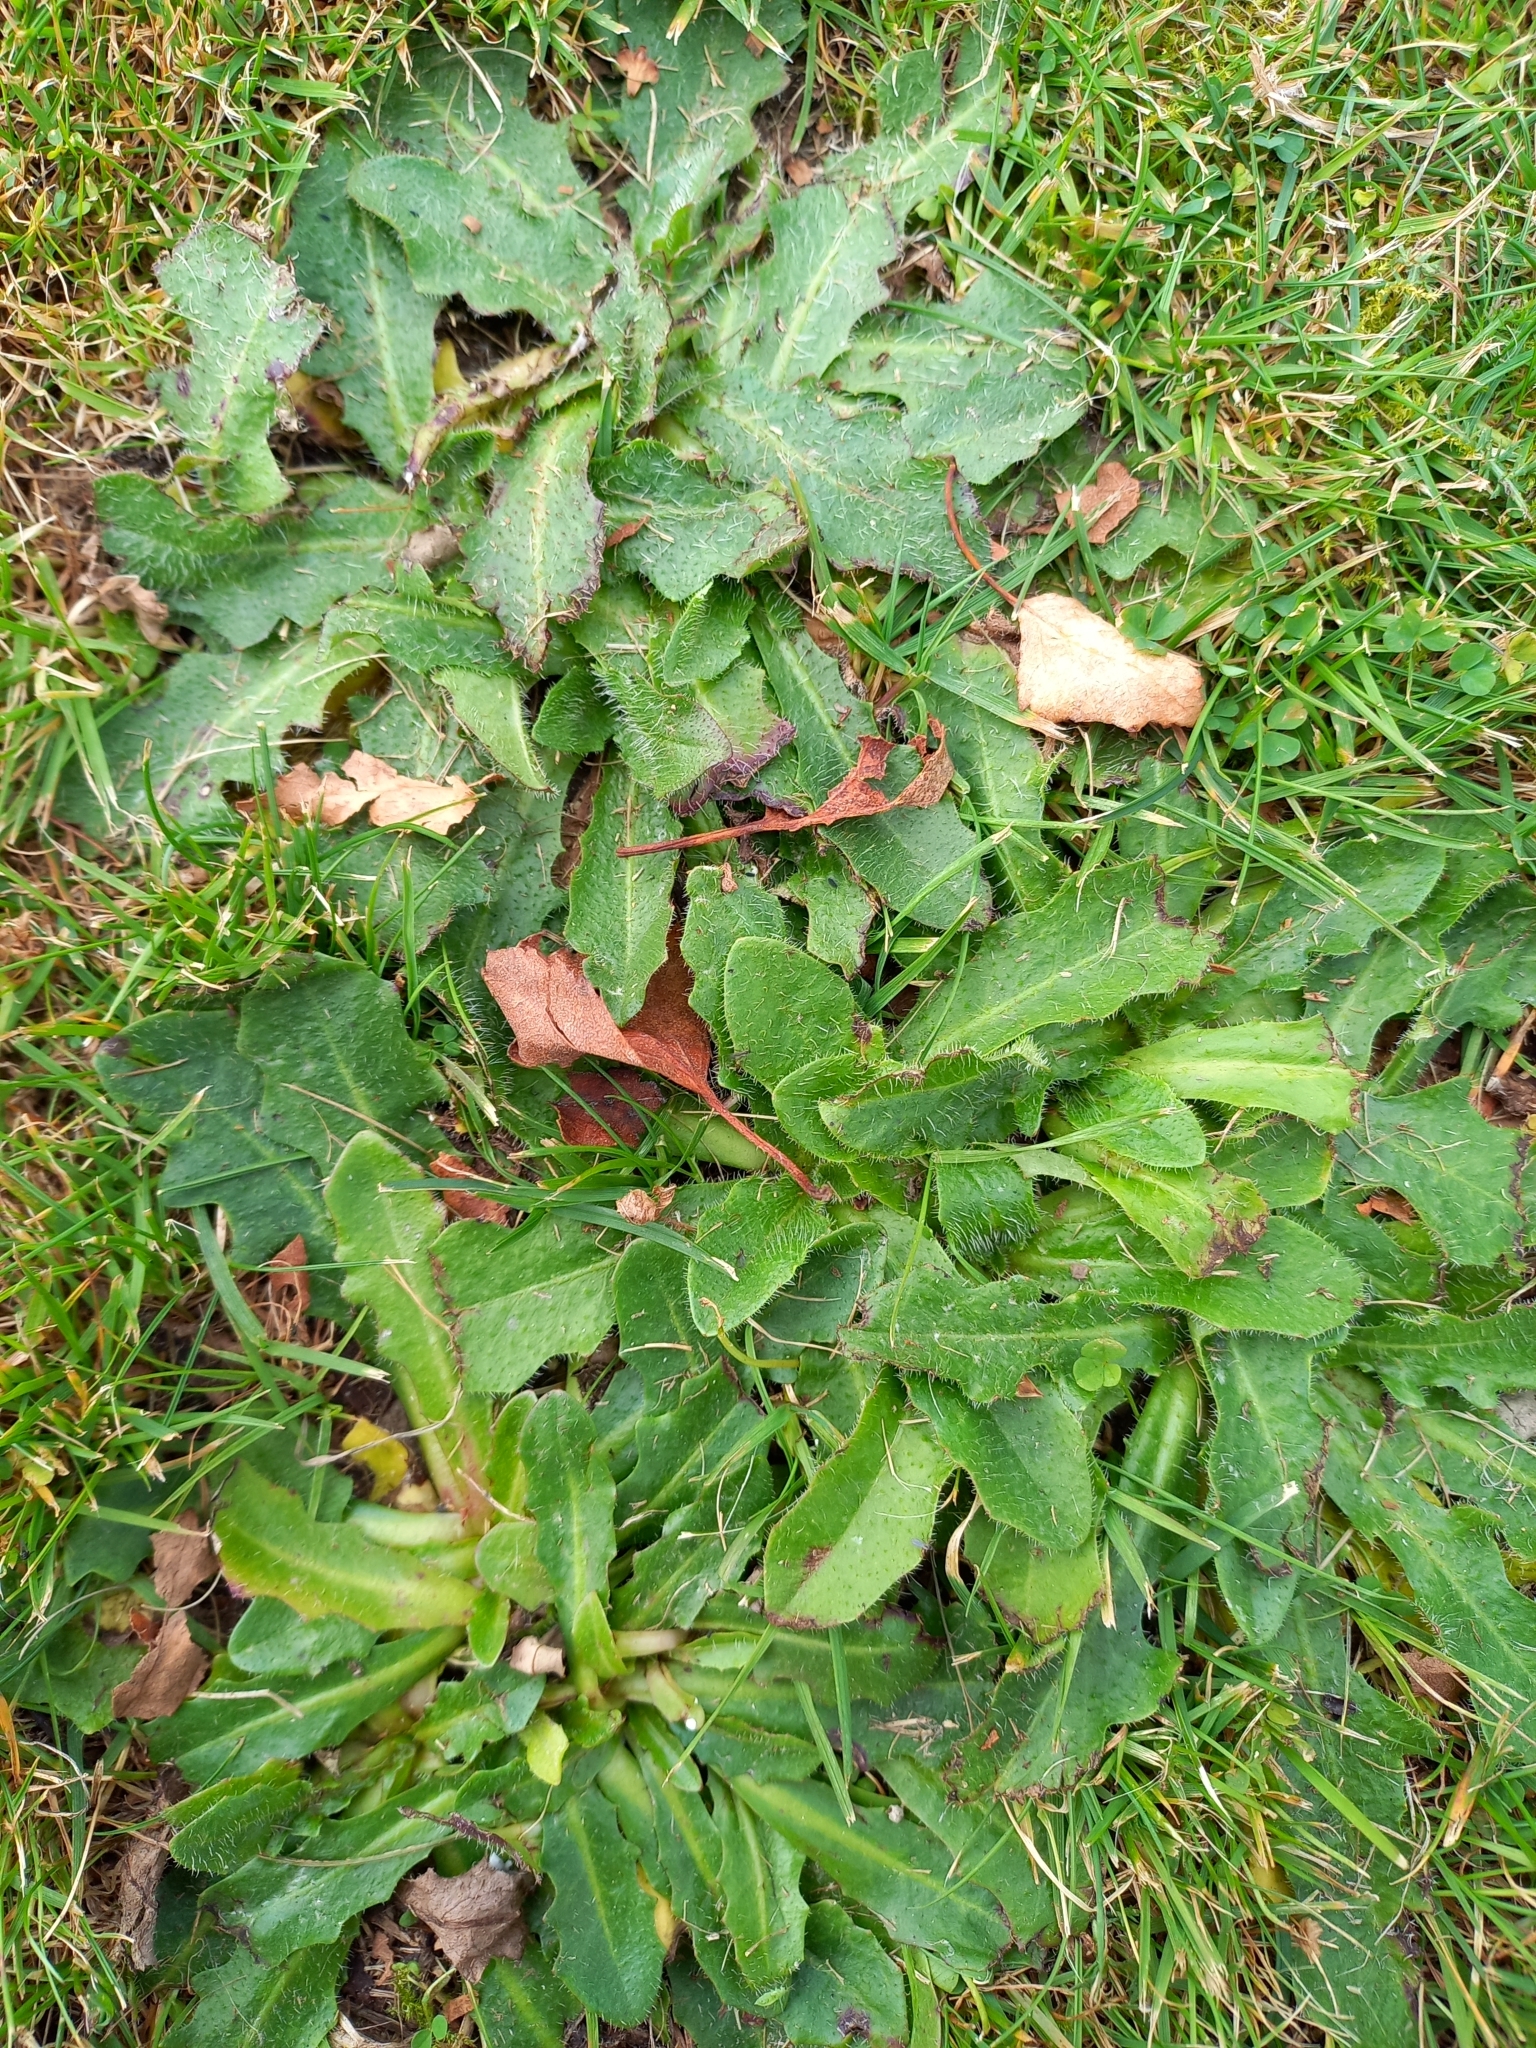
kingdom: Plantae
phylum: Tracheophyta
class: Magnoliopsida
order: Asterales
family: Asteraceae
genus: Hypochaeris
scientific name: Hypochaeris radicata
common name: Flatweed
